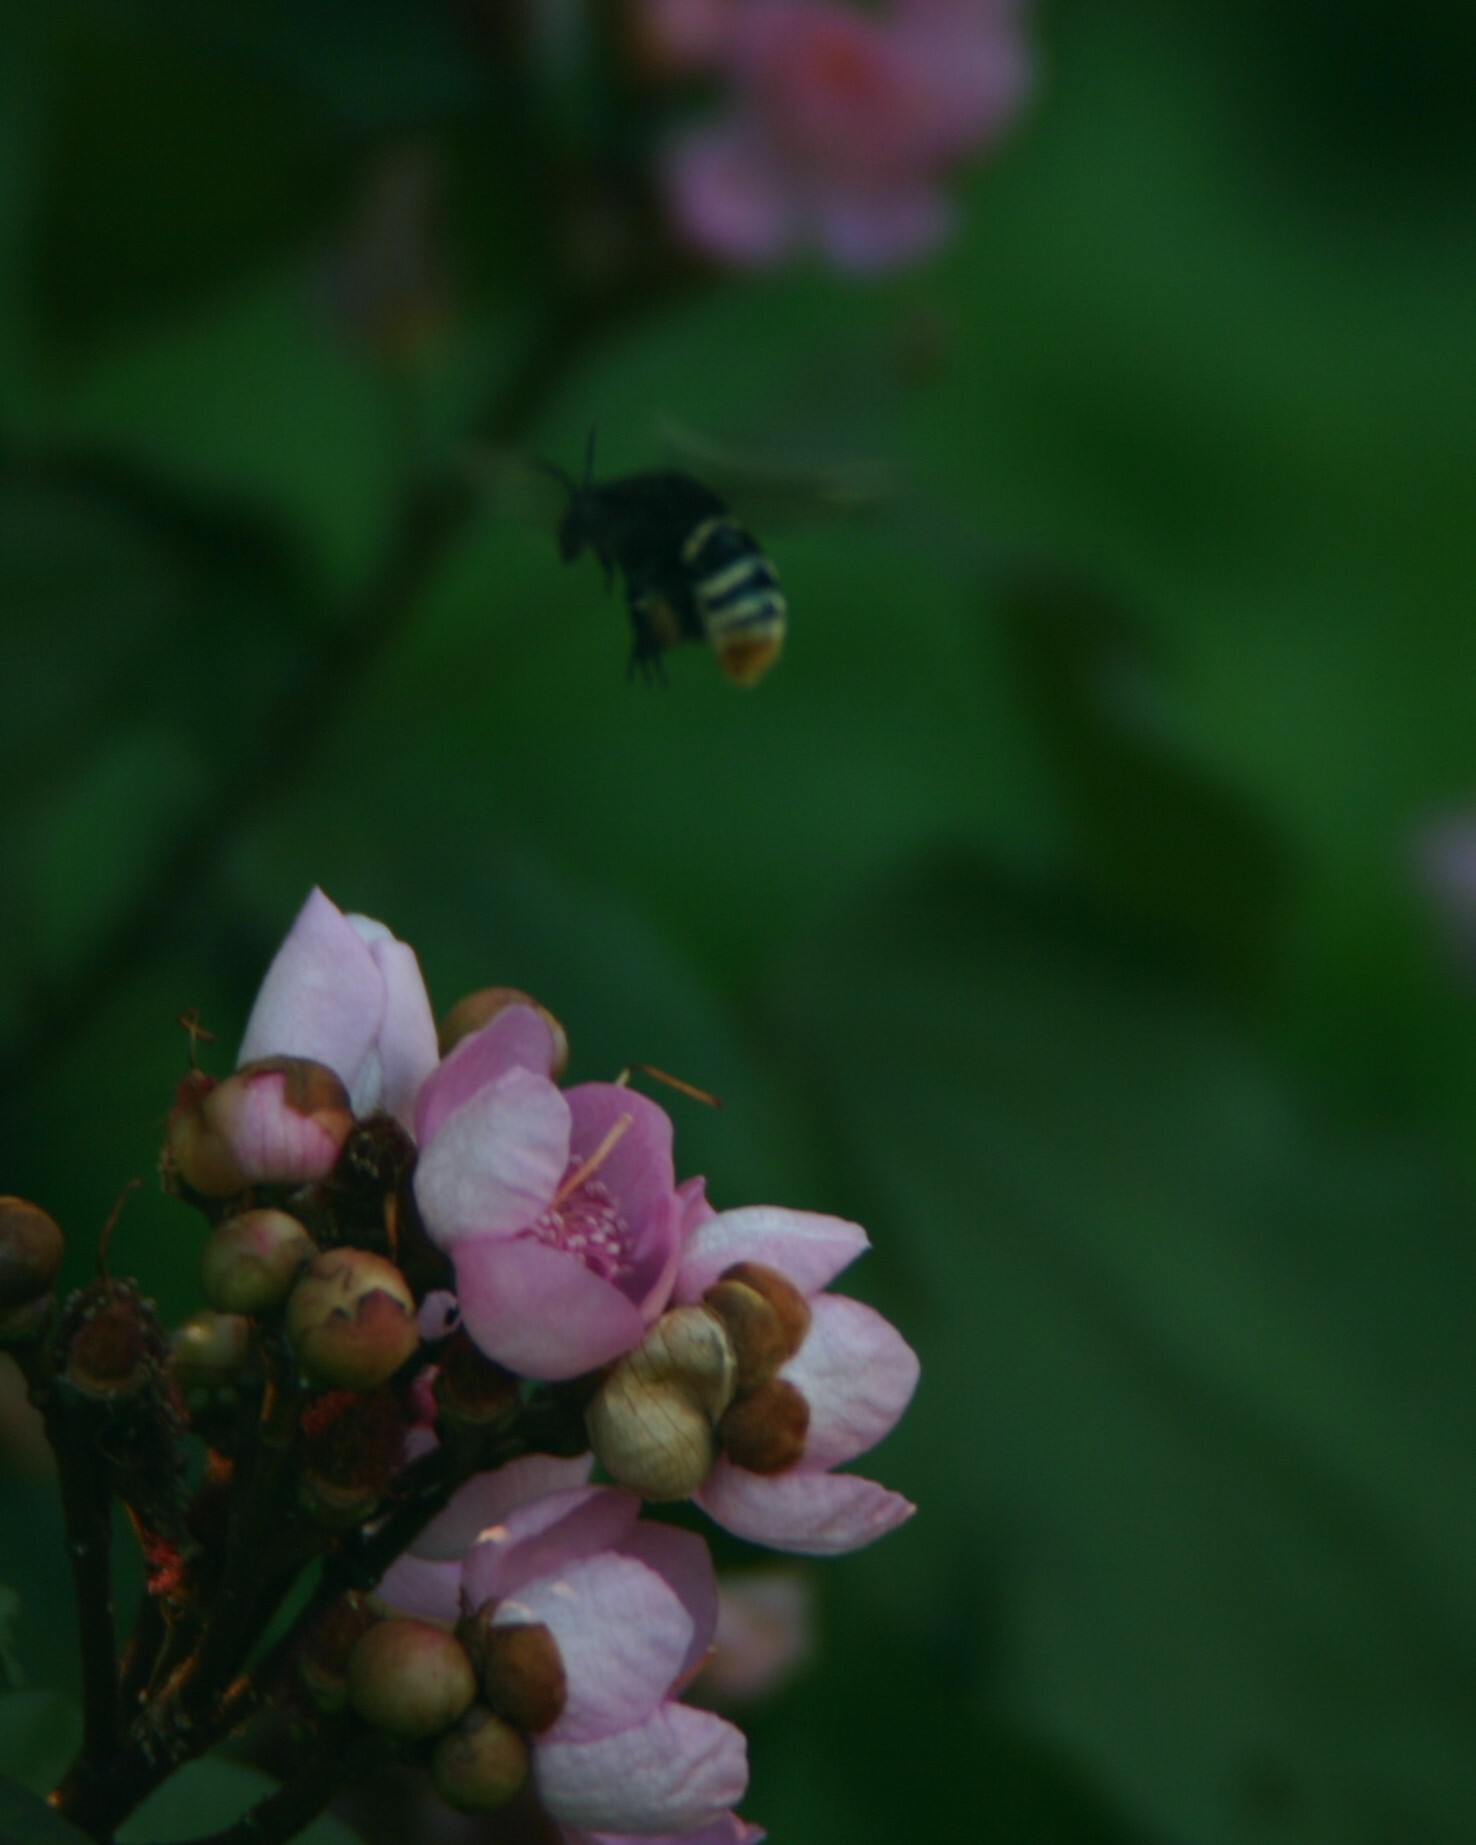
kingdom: Animalia
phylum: Arthropoda
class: Insecta
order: Hymenoptera
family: Apidae
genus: Eulaema
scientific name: Eulaema seabrai
